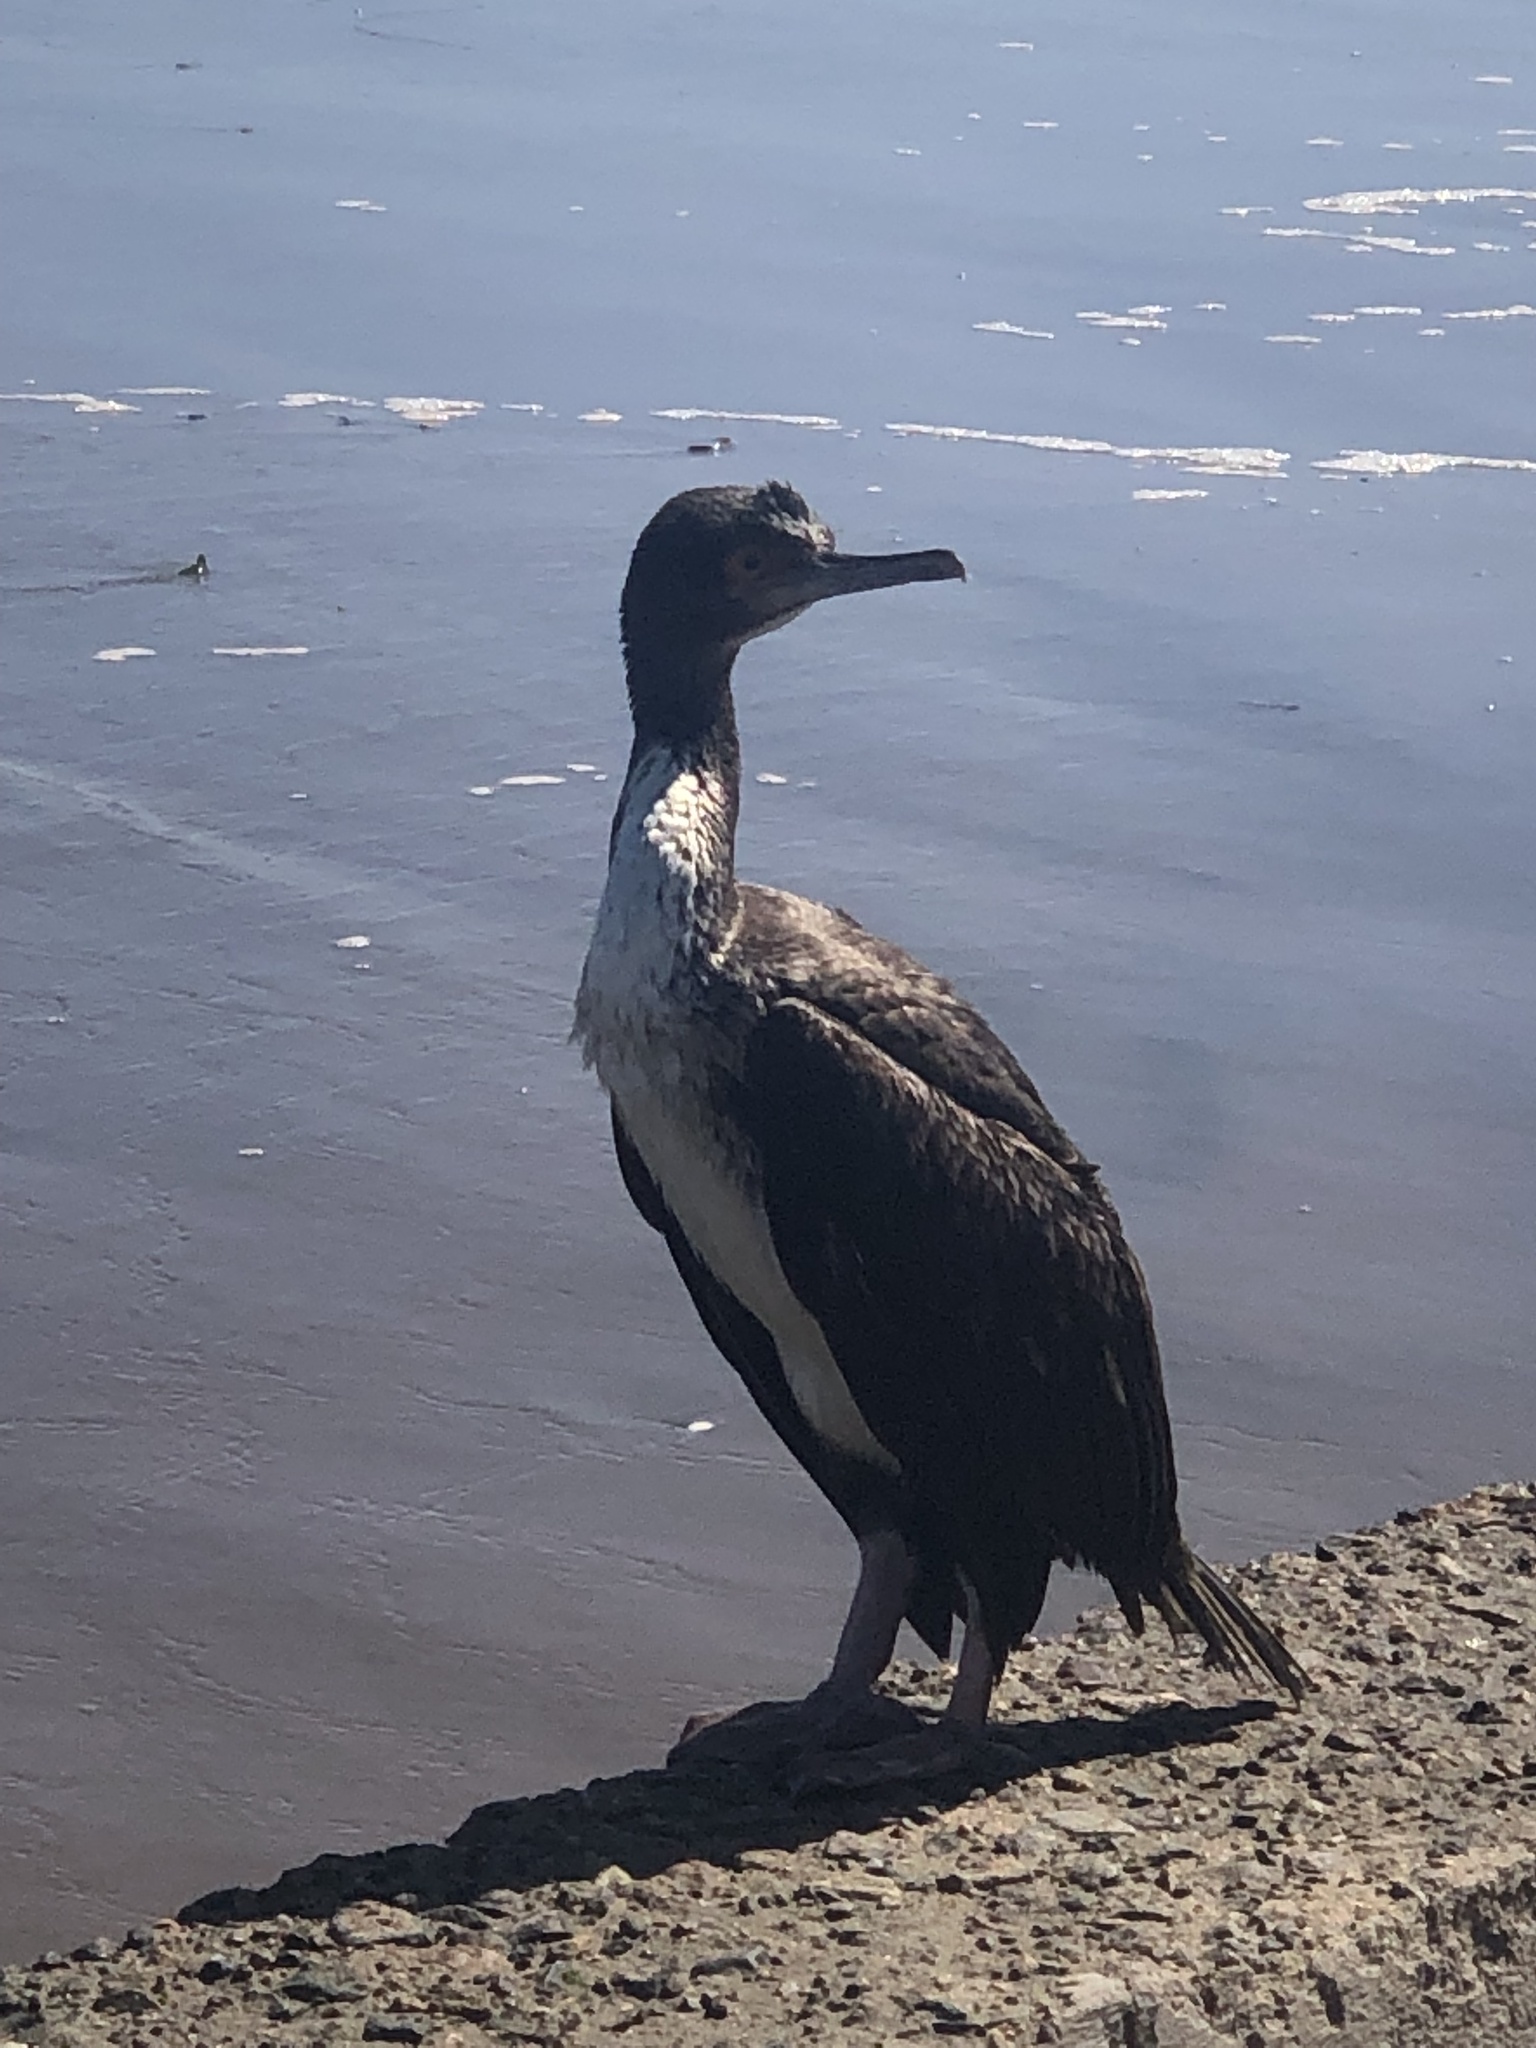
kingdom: Animalia
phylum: Chordata
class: Aves
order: Suliformes
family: Phalacrocoracidae
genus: Leucocarbo
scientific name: Leucocarbo bougainvillii
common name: Guanay cormorant
